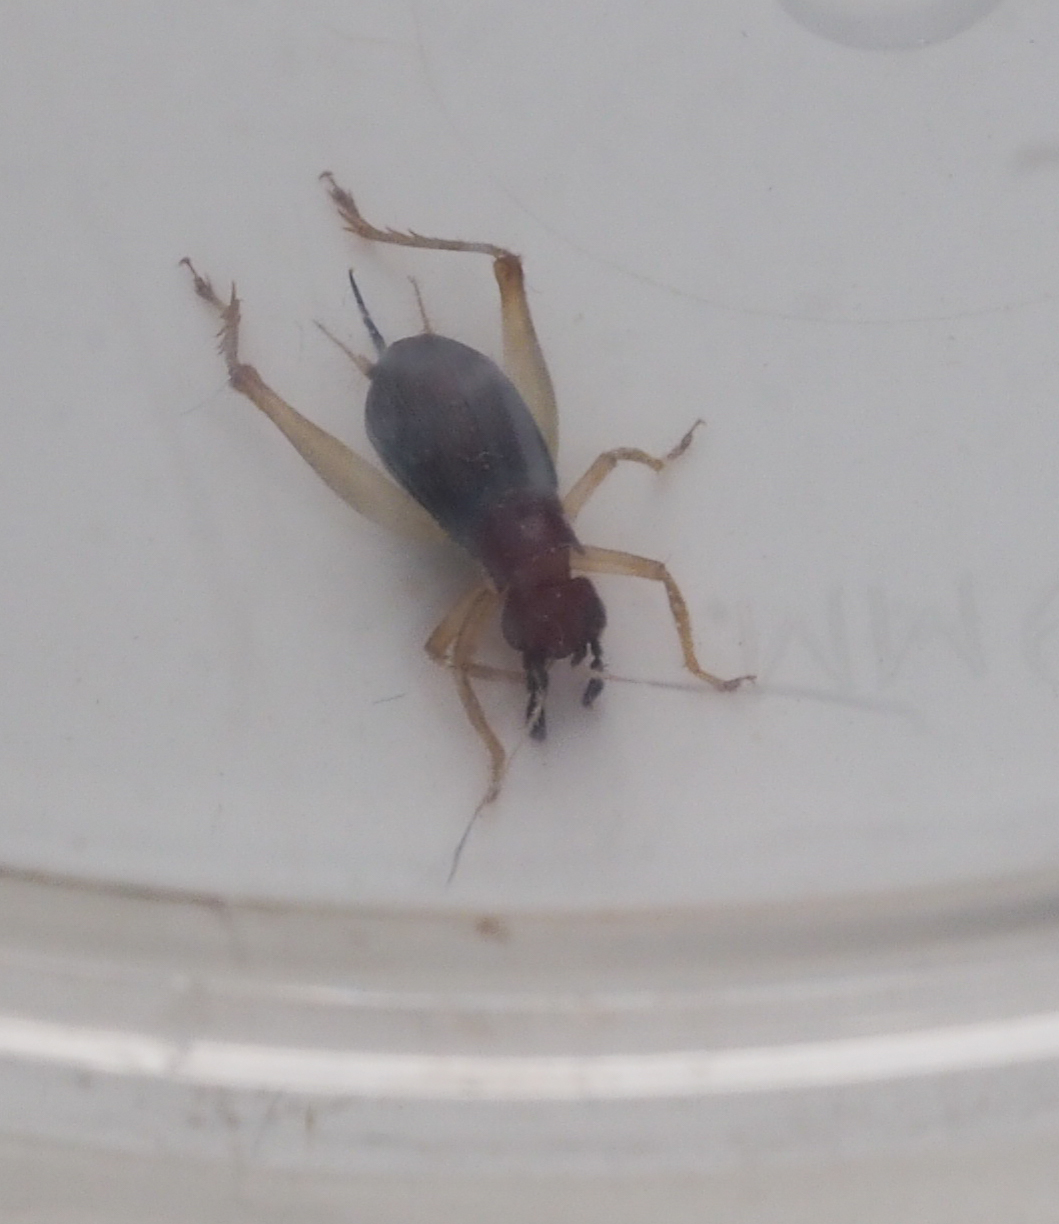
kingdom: Animalia
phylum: Arthropoda
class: Insecta
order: Orthoptera
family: Trigonidiidae
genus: Phyllopalpus
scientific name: Phyllopalpus pulchellus
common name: Handsome trig
